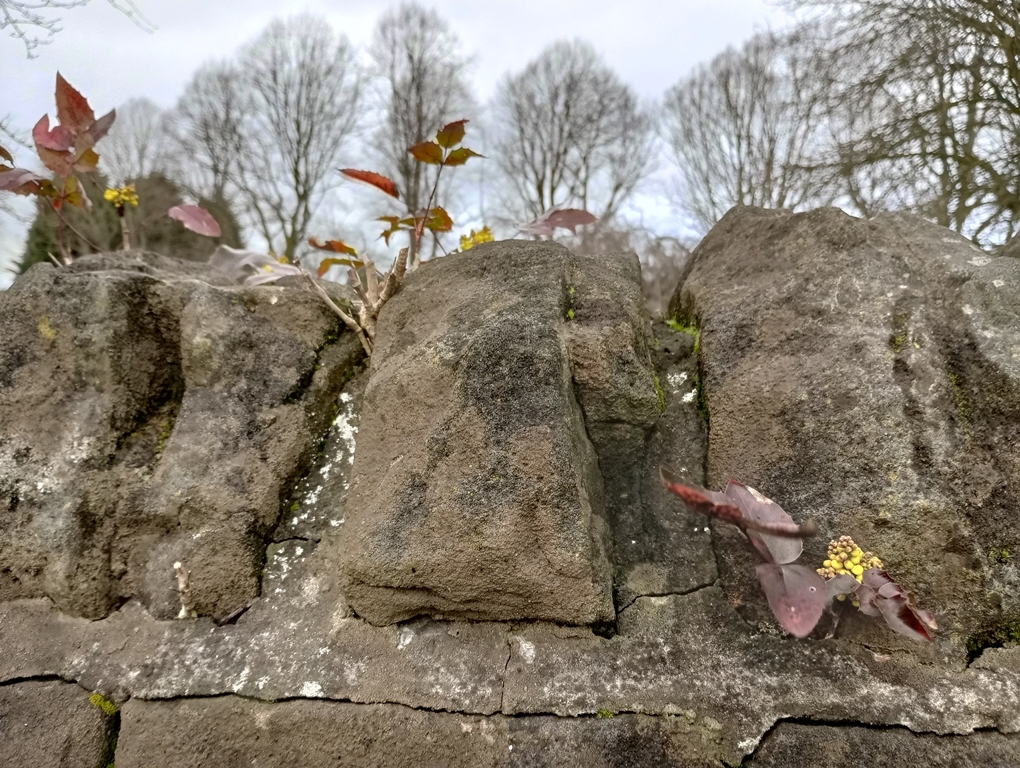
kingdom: Plantae
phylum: Tracheophyta
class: Magnoliopsida
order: Ranunculales
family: Berberidaceae
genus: Mahonia
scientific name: Mahonia aquifolium
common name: Oregon-grape
